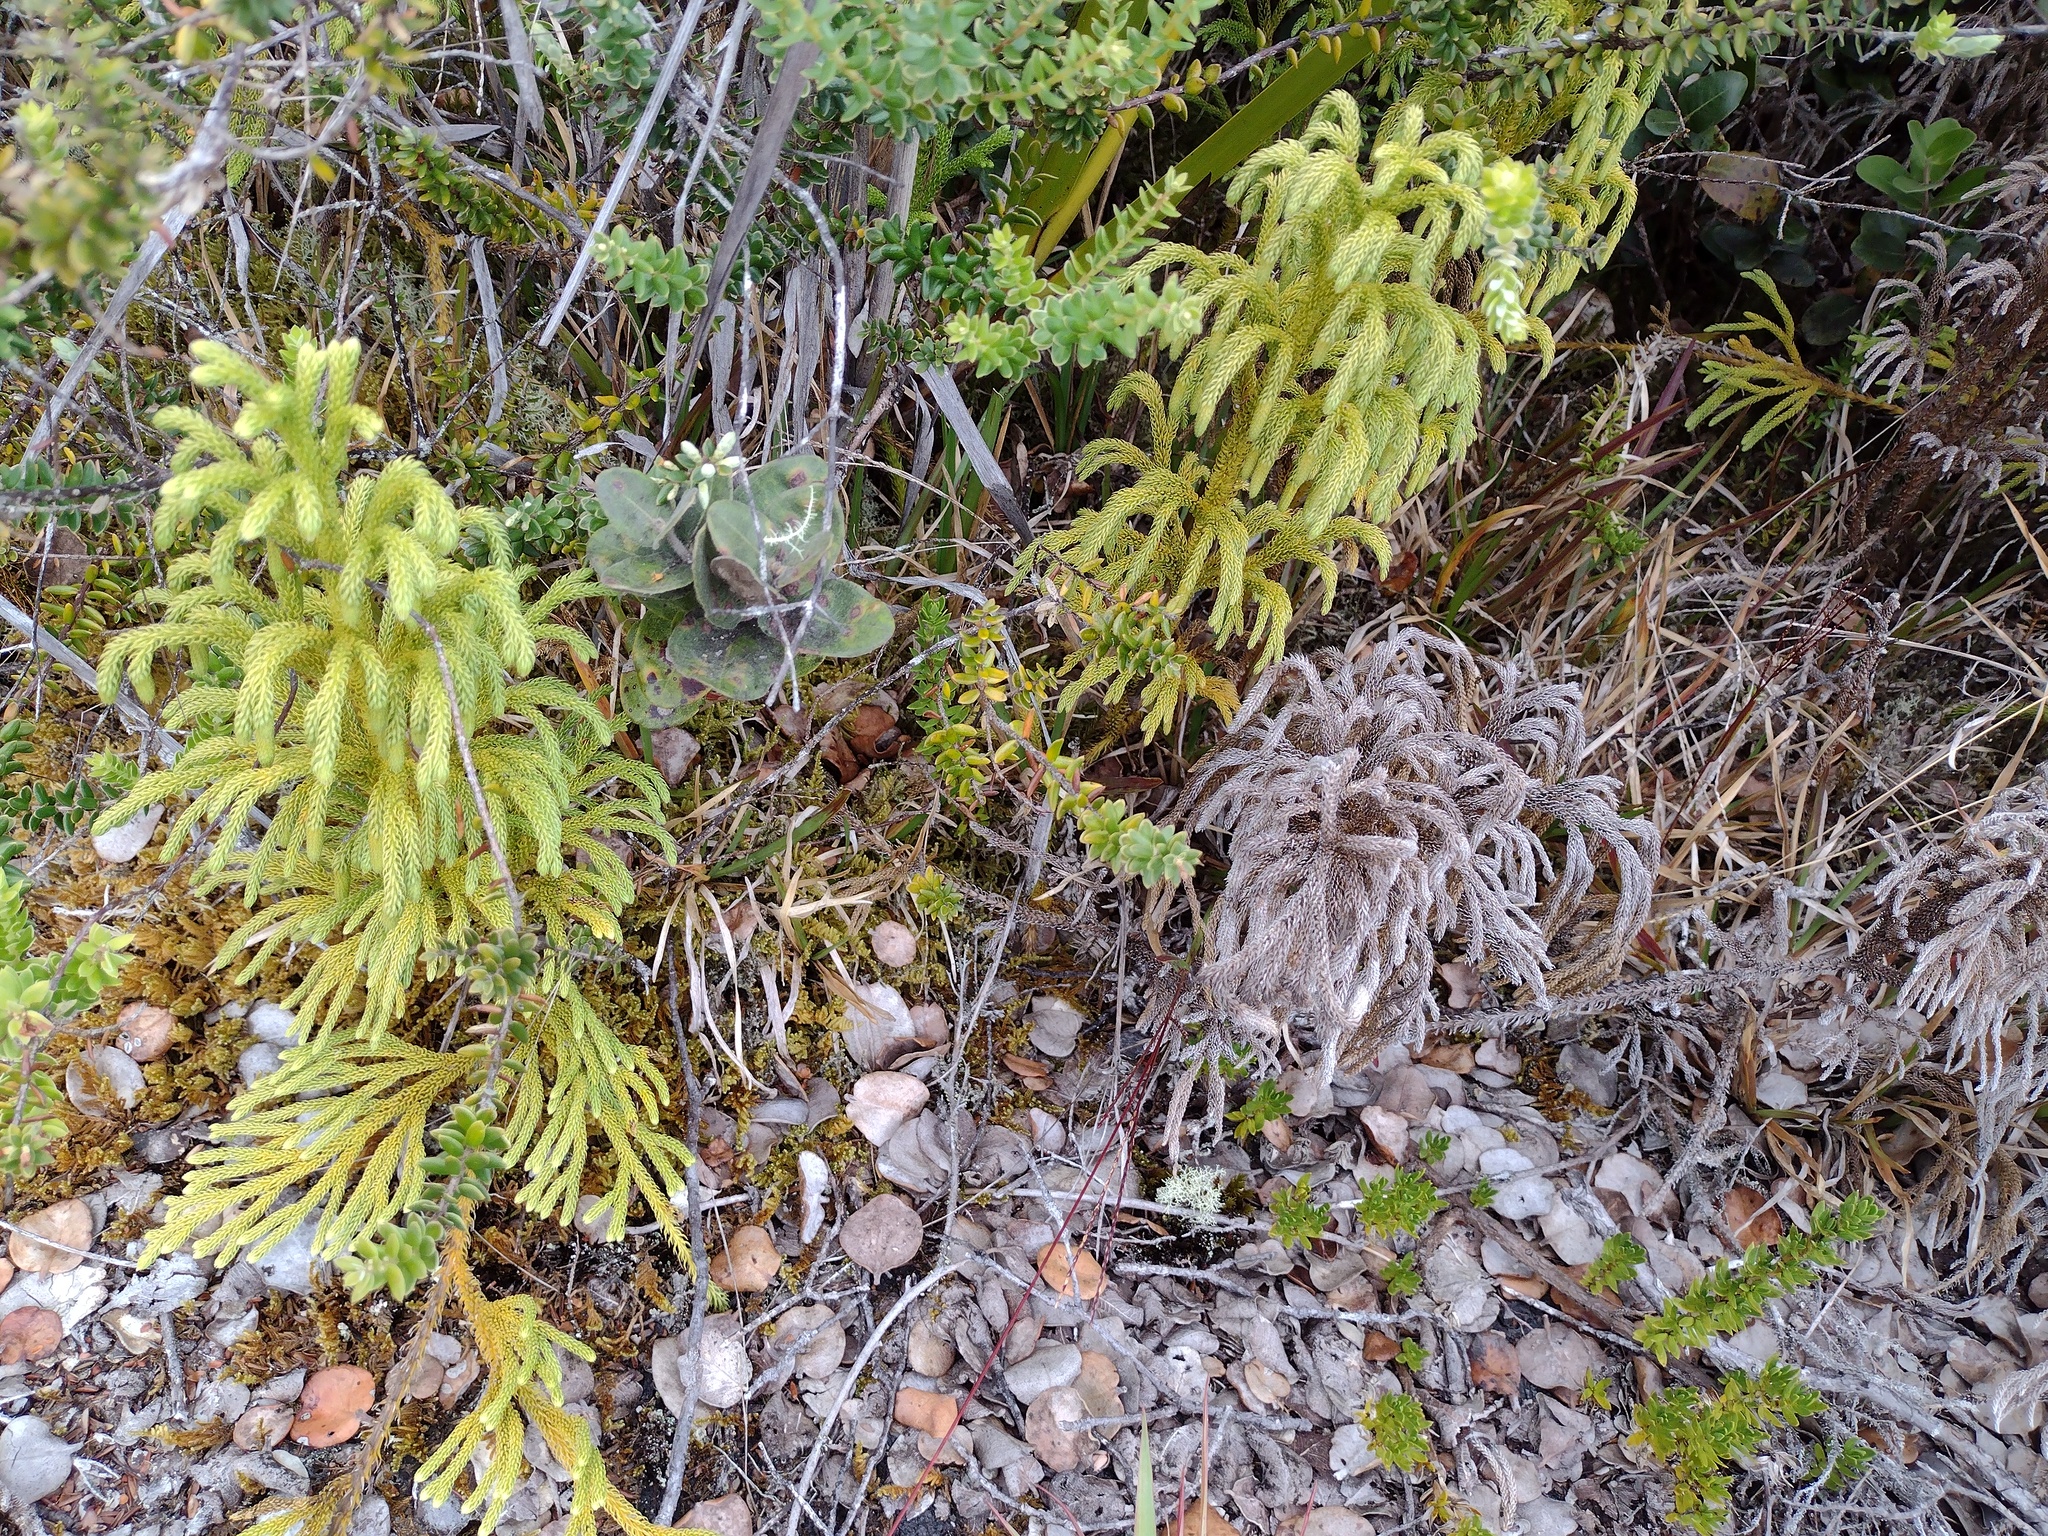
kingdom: Plantae
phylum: Tracheophyta
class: Lycopodiopsida
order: Lycopodiales
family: Lycopodiaceae
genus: Palhinhaea
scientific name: Palhinhaea cernua
